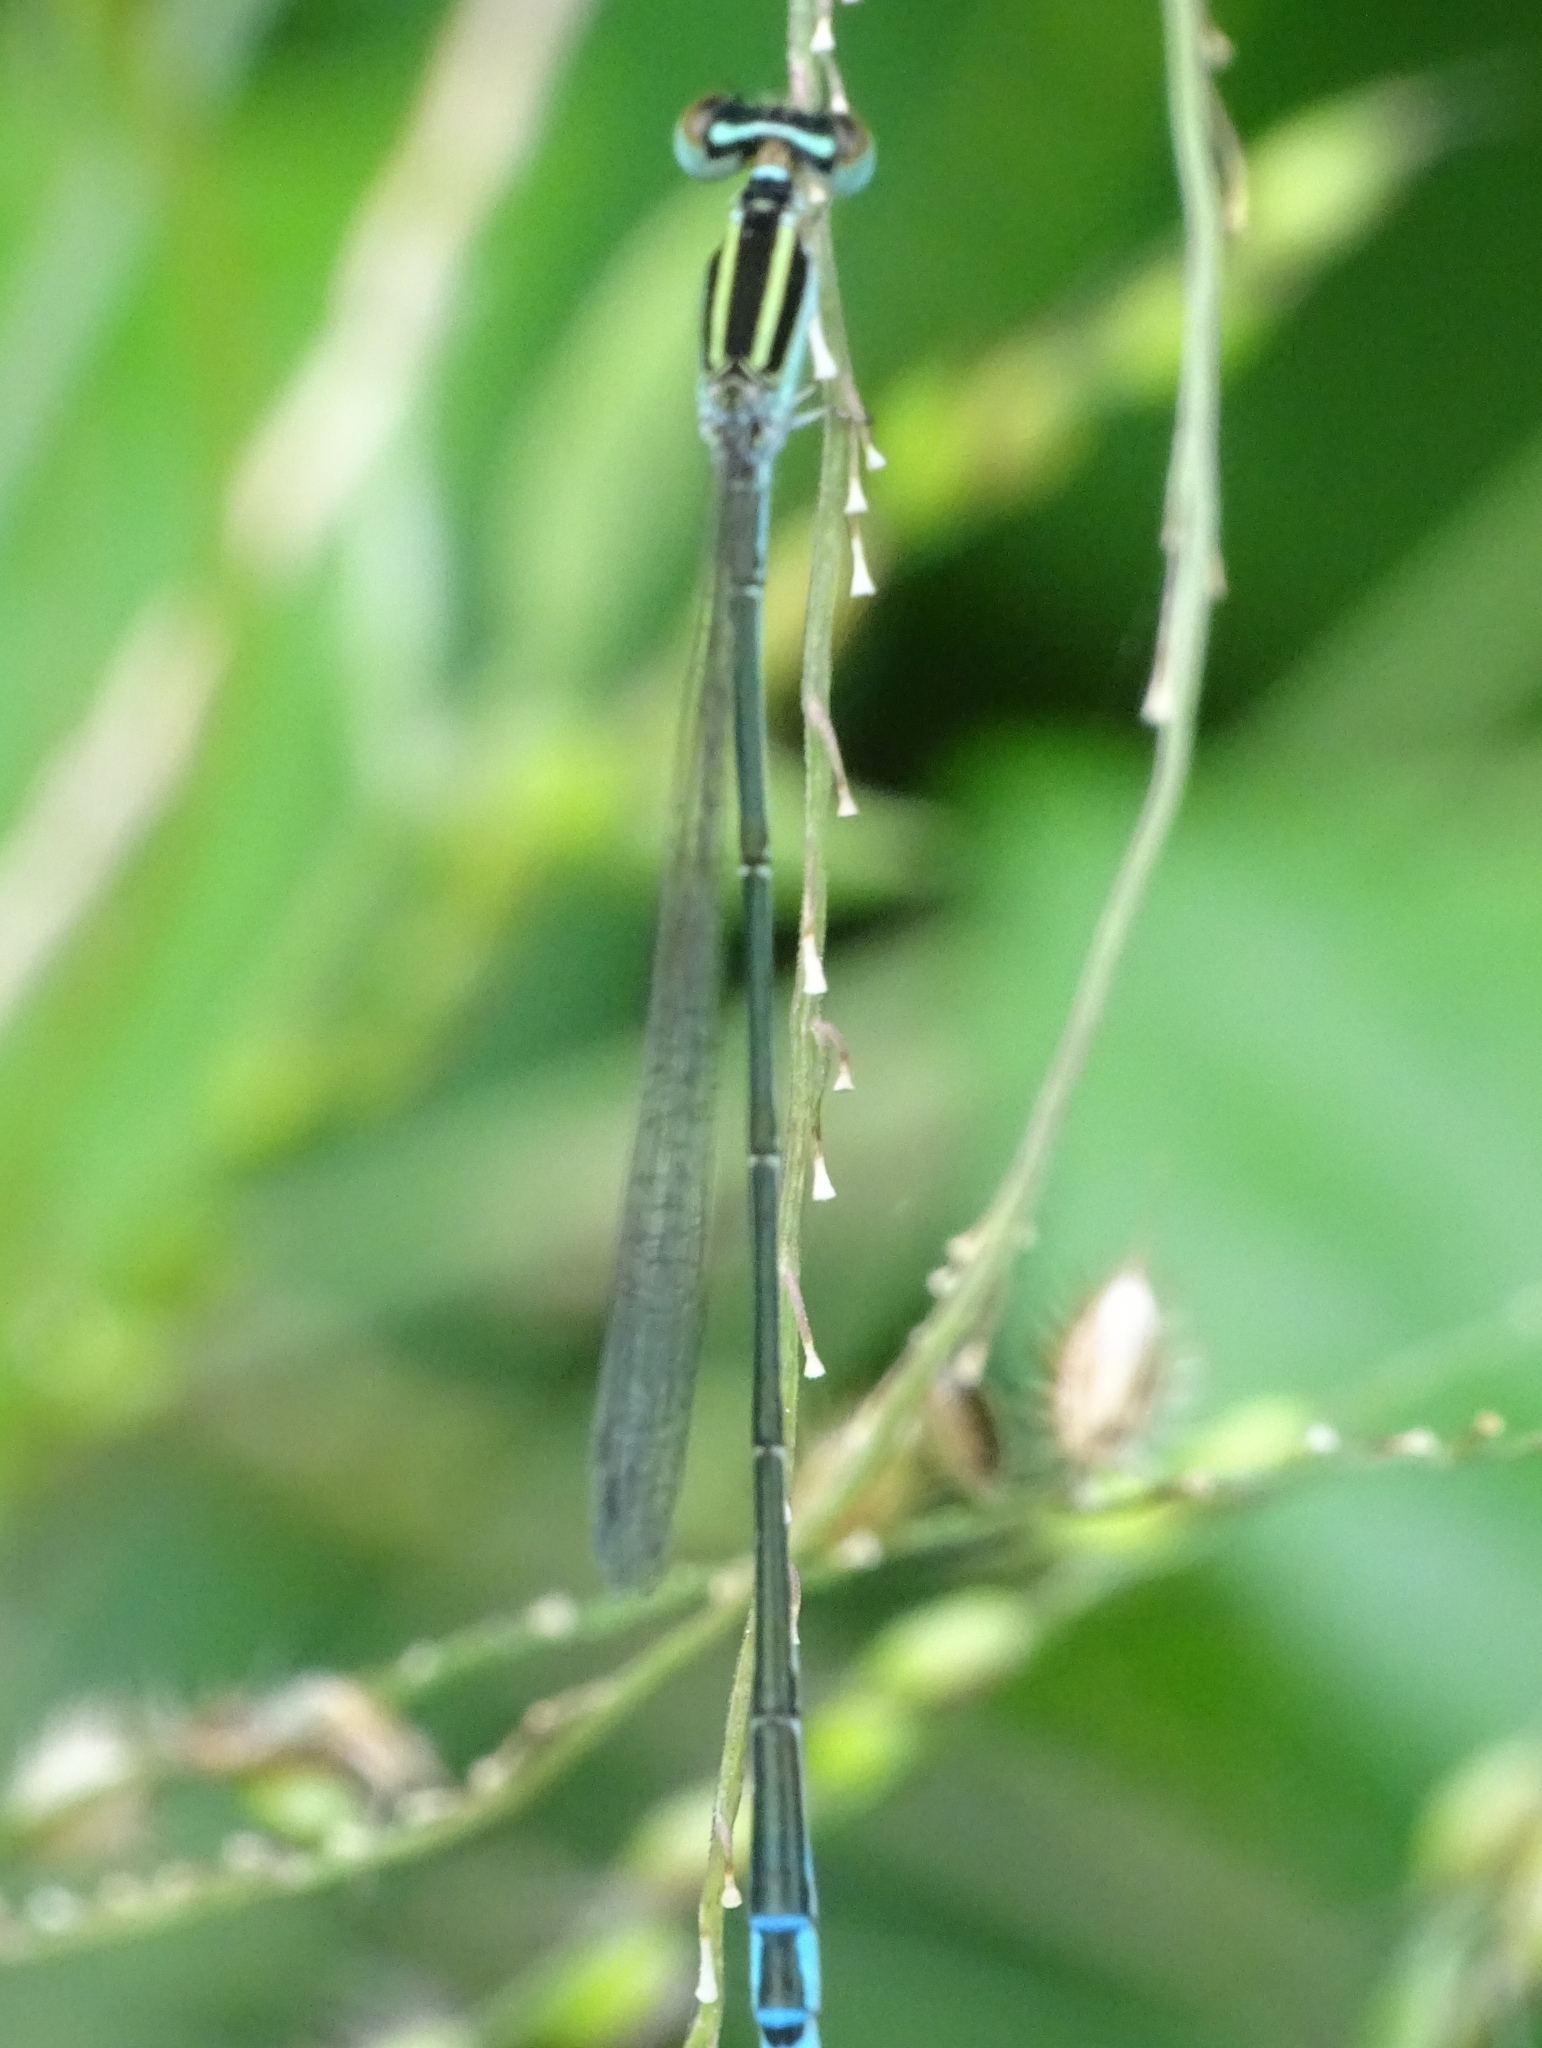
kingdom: Animalia
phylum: Arthropoda
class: Insecta
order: Odonata
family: Coenagrionidae
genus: Aciagrion
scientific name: Aciagrion occidentale
